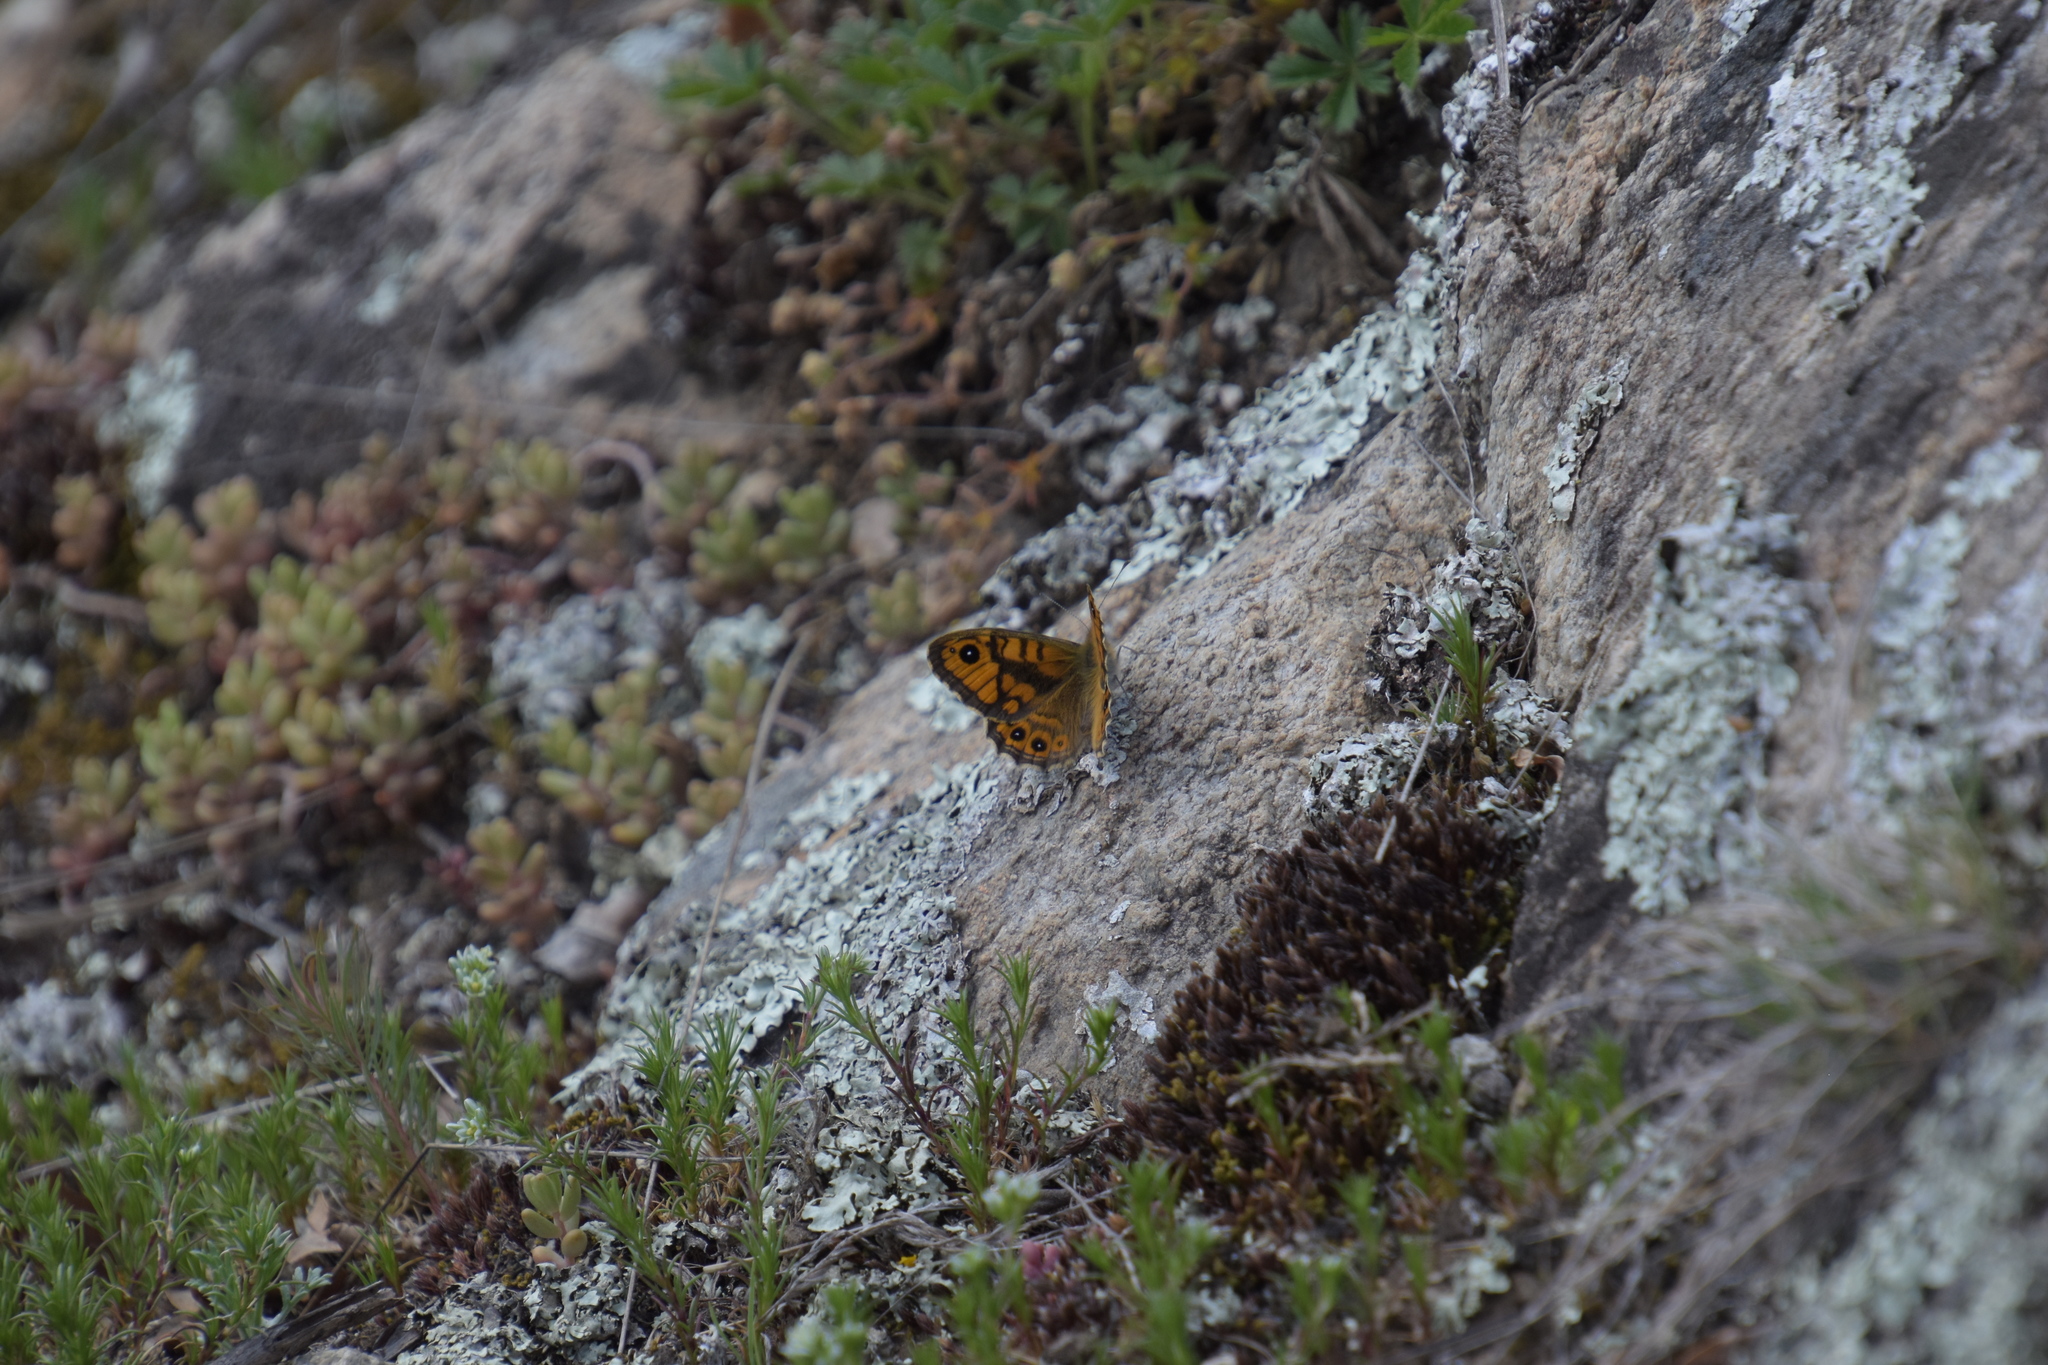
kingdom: Animalia
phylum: Arthropoda
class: Insecta
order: Lepidoptera
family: Nymphalidae
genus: Pararge
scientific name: Pararge Lasiommata megera
